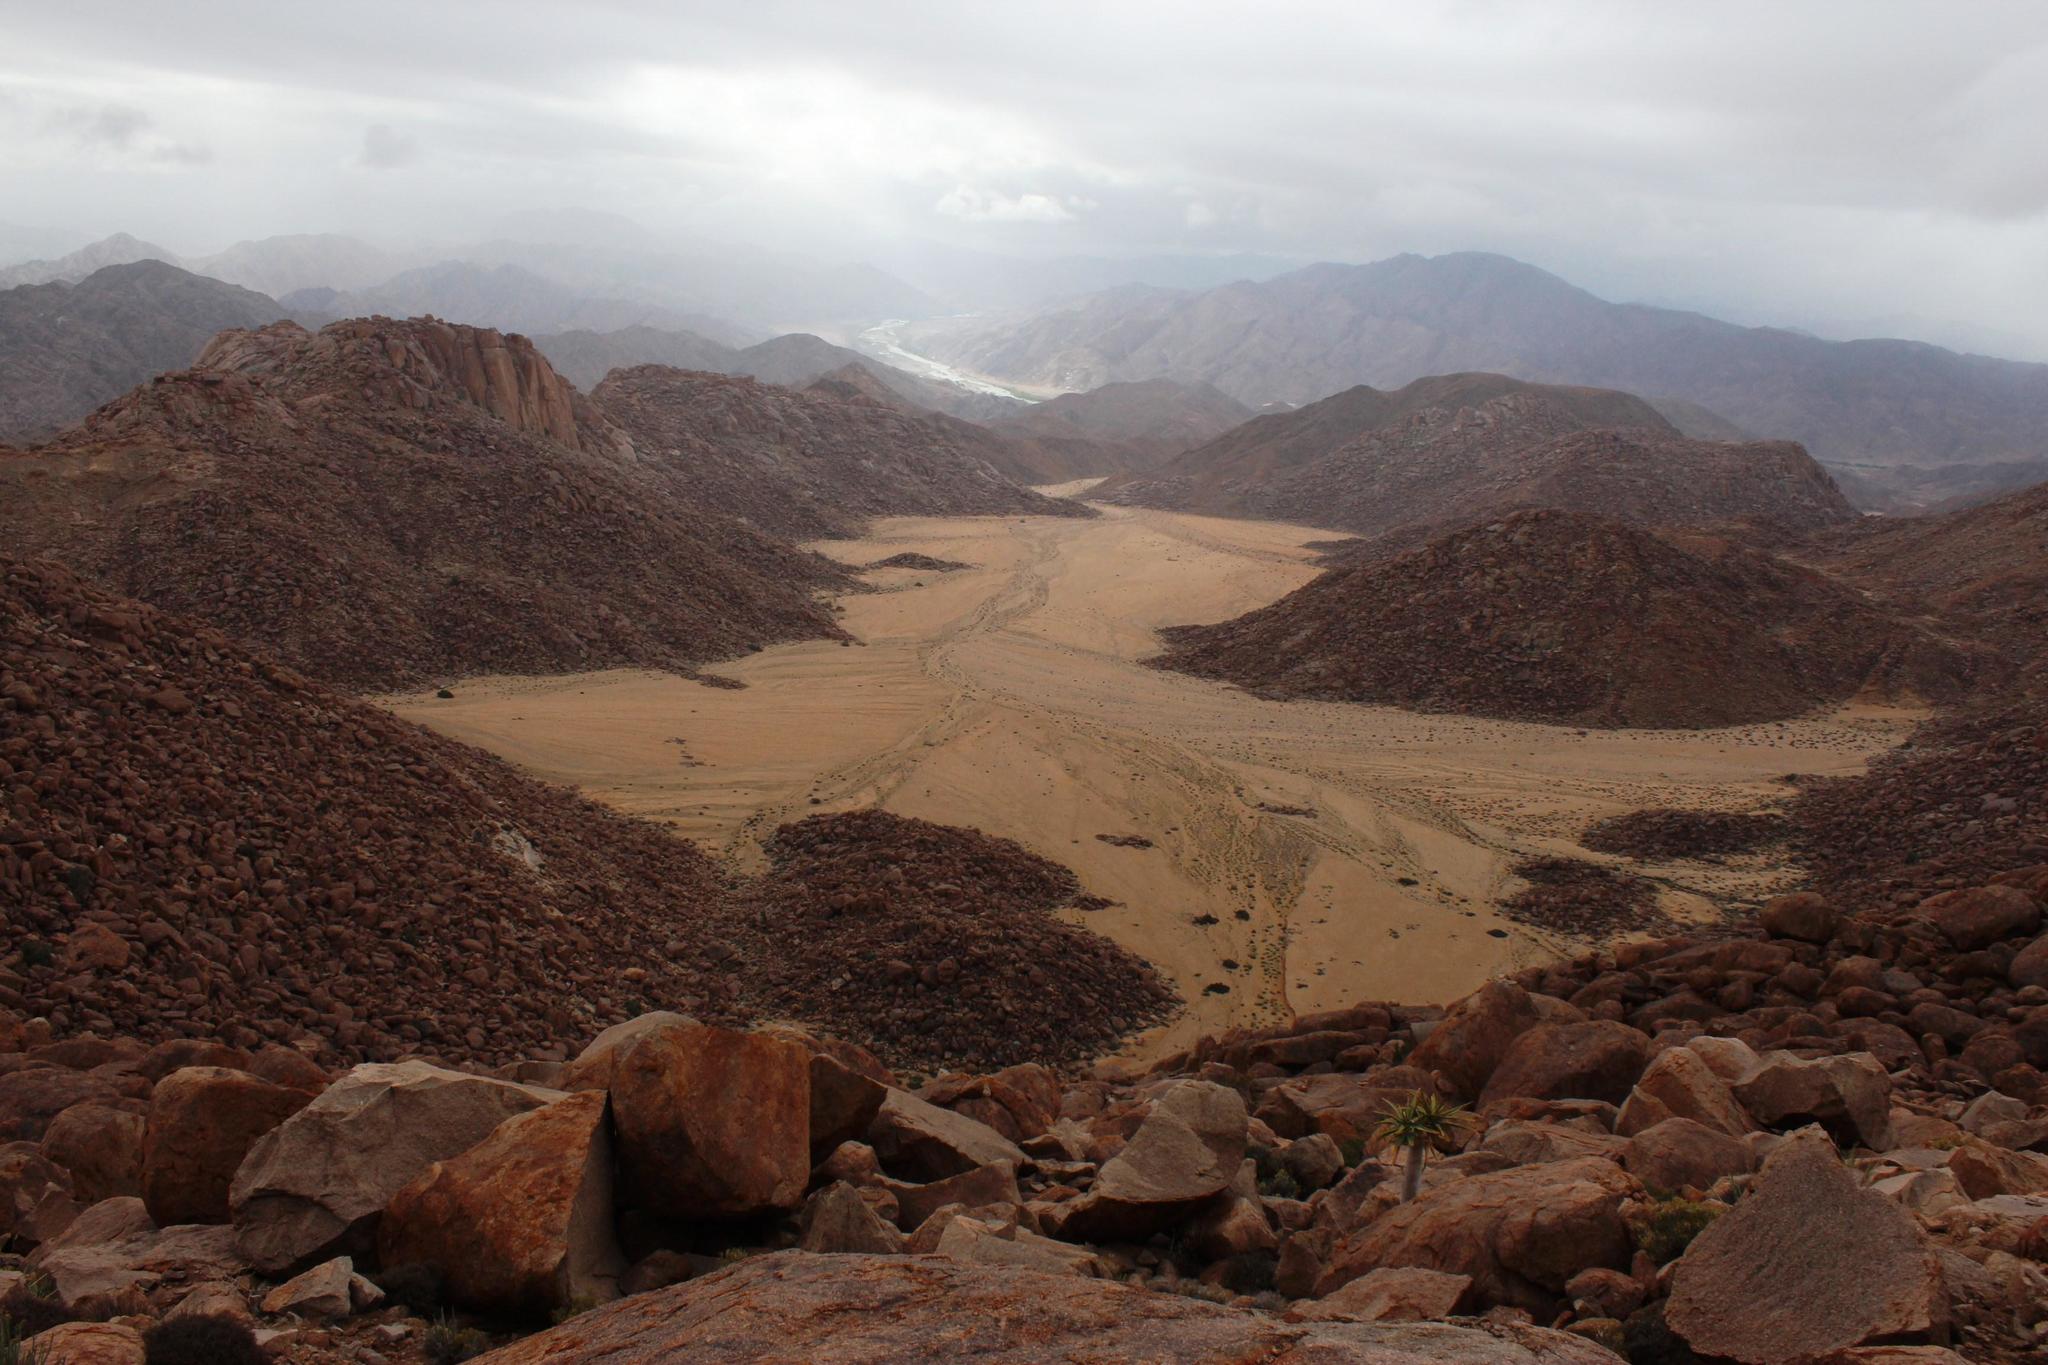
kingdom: Plantae
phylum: Tracheophyta
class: Liliopsida
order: Asparagales
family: Asphodelaceae
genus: Aloidendron
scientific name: Aloidendron dichotomum
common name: Quiver tree
